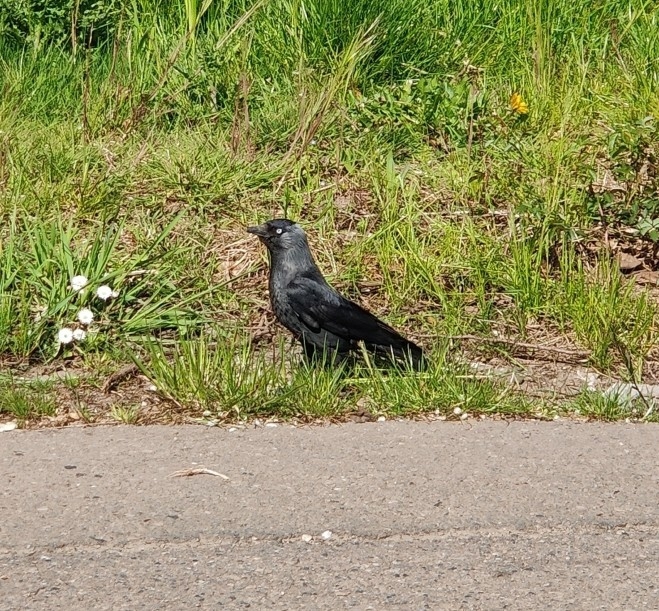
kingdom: Animalia
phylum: Chordata
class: Aves
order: Passeriformes
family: Corvidae
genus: Coloeus
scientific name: Coloeus monedula
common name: Western jackdaw
